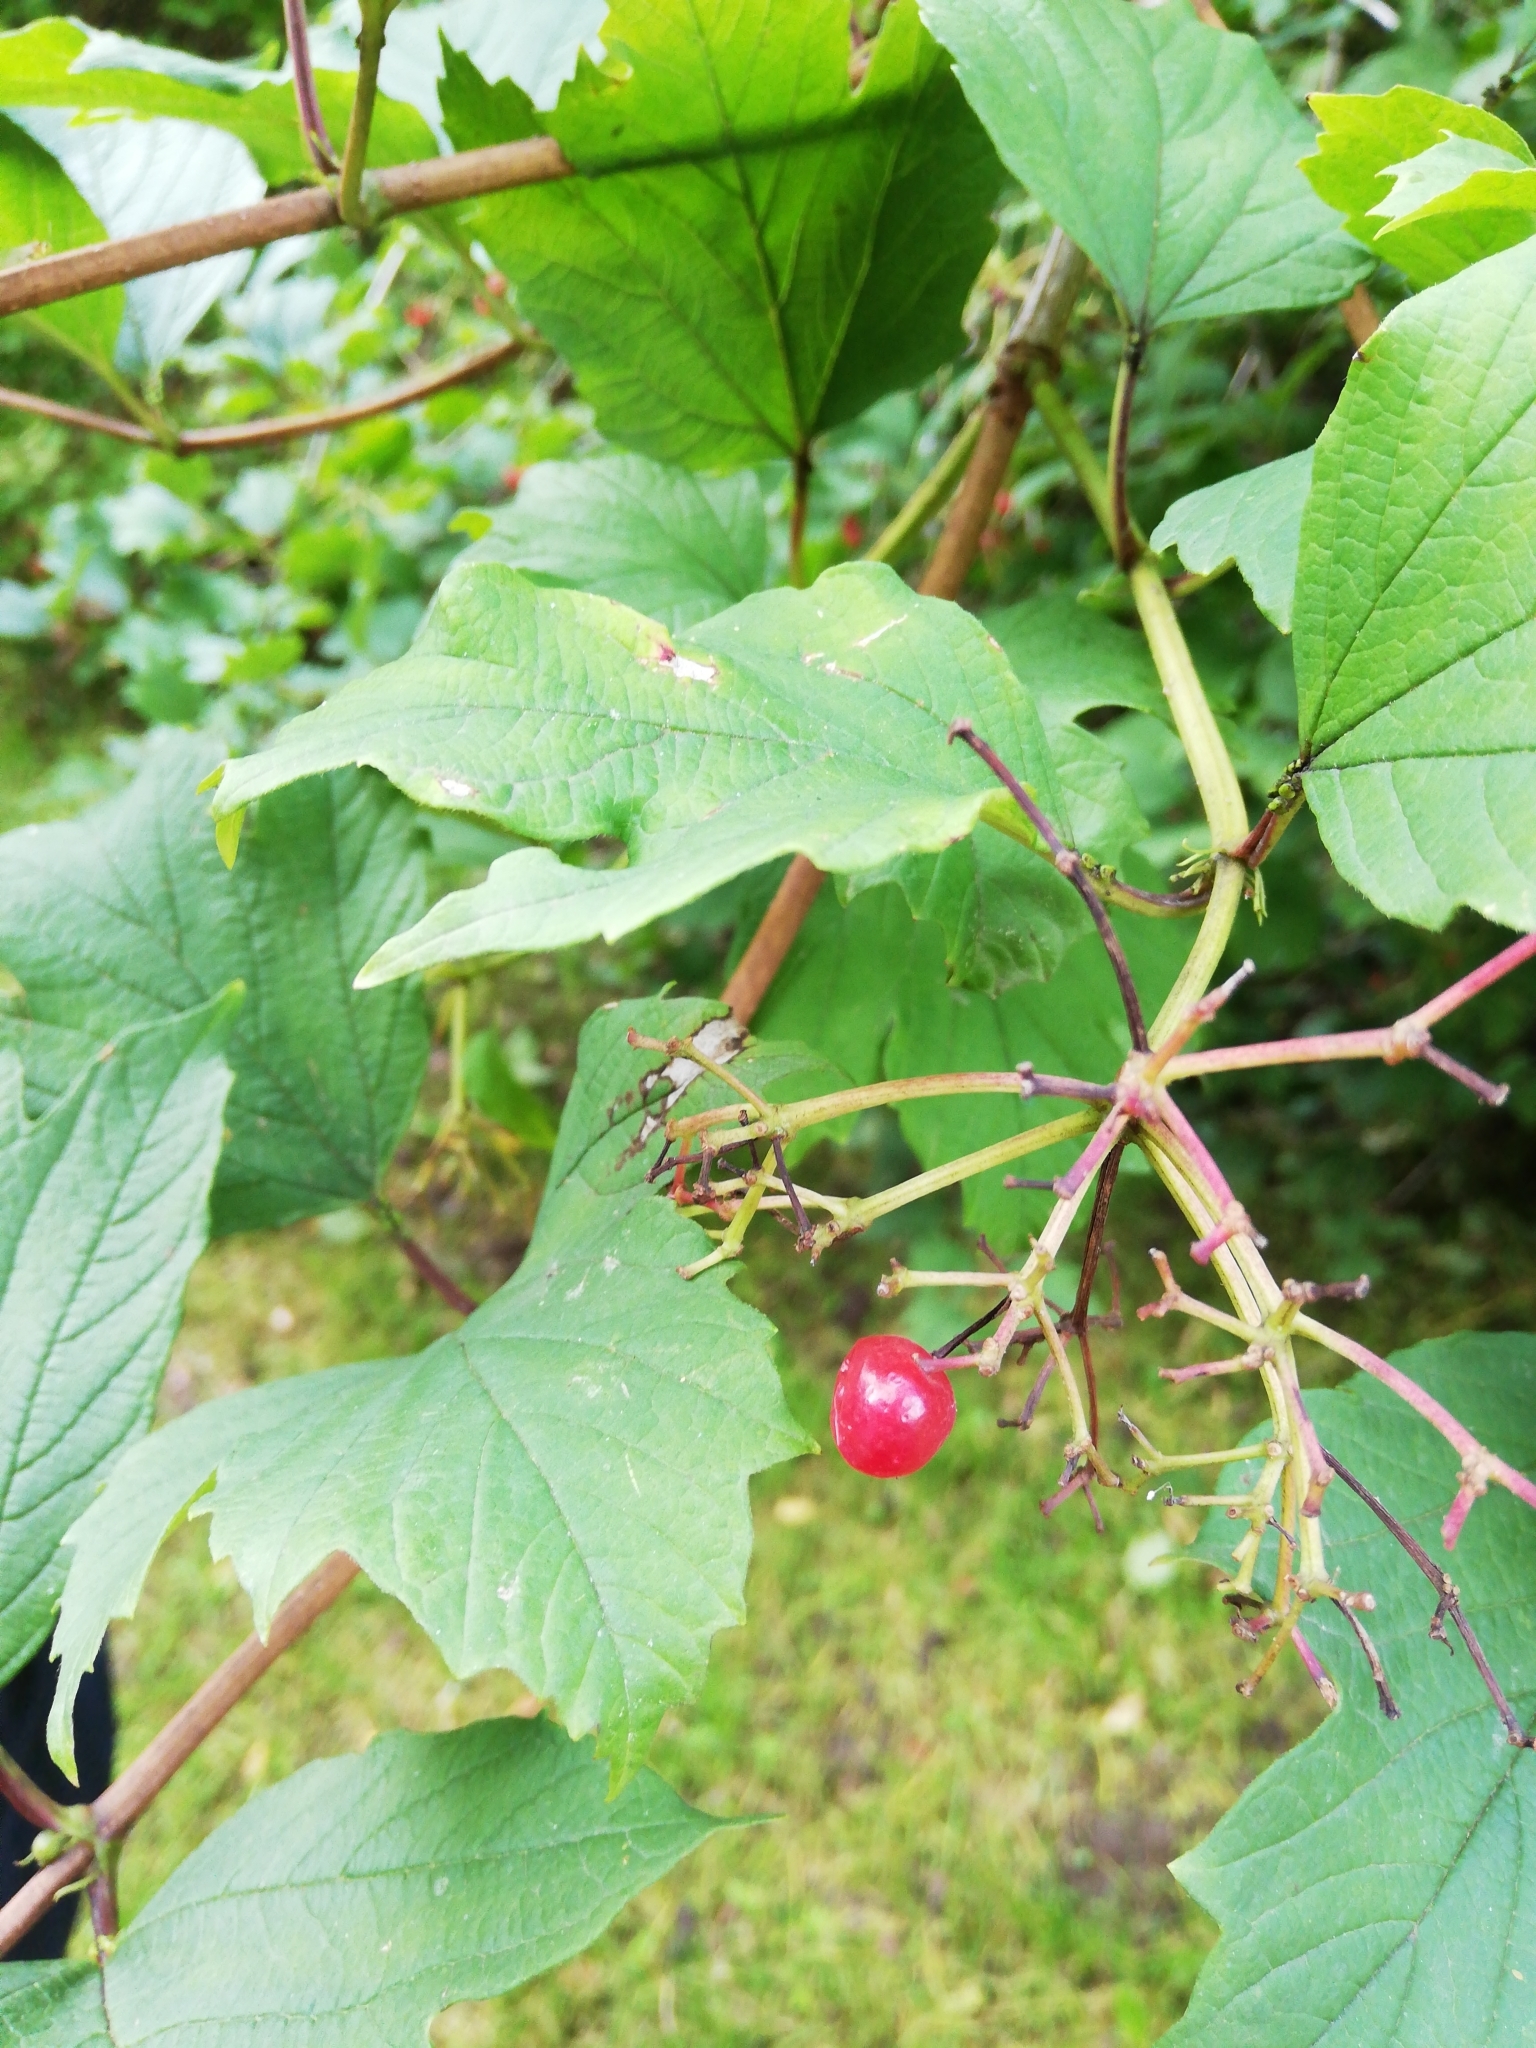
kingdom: Plantae
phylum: Tracheophyta
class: Magnoliopsida
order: Dipsacales
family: Viburnaceae
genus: Viburnum
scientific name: Viburnum opulus
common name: Guelder-rose
